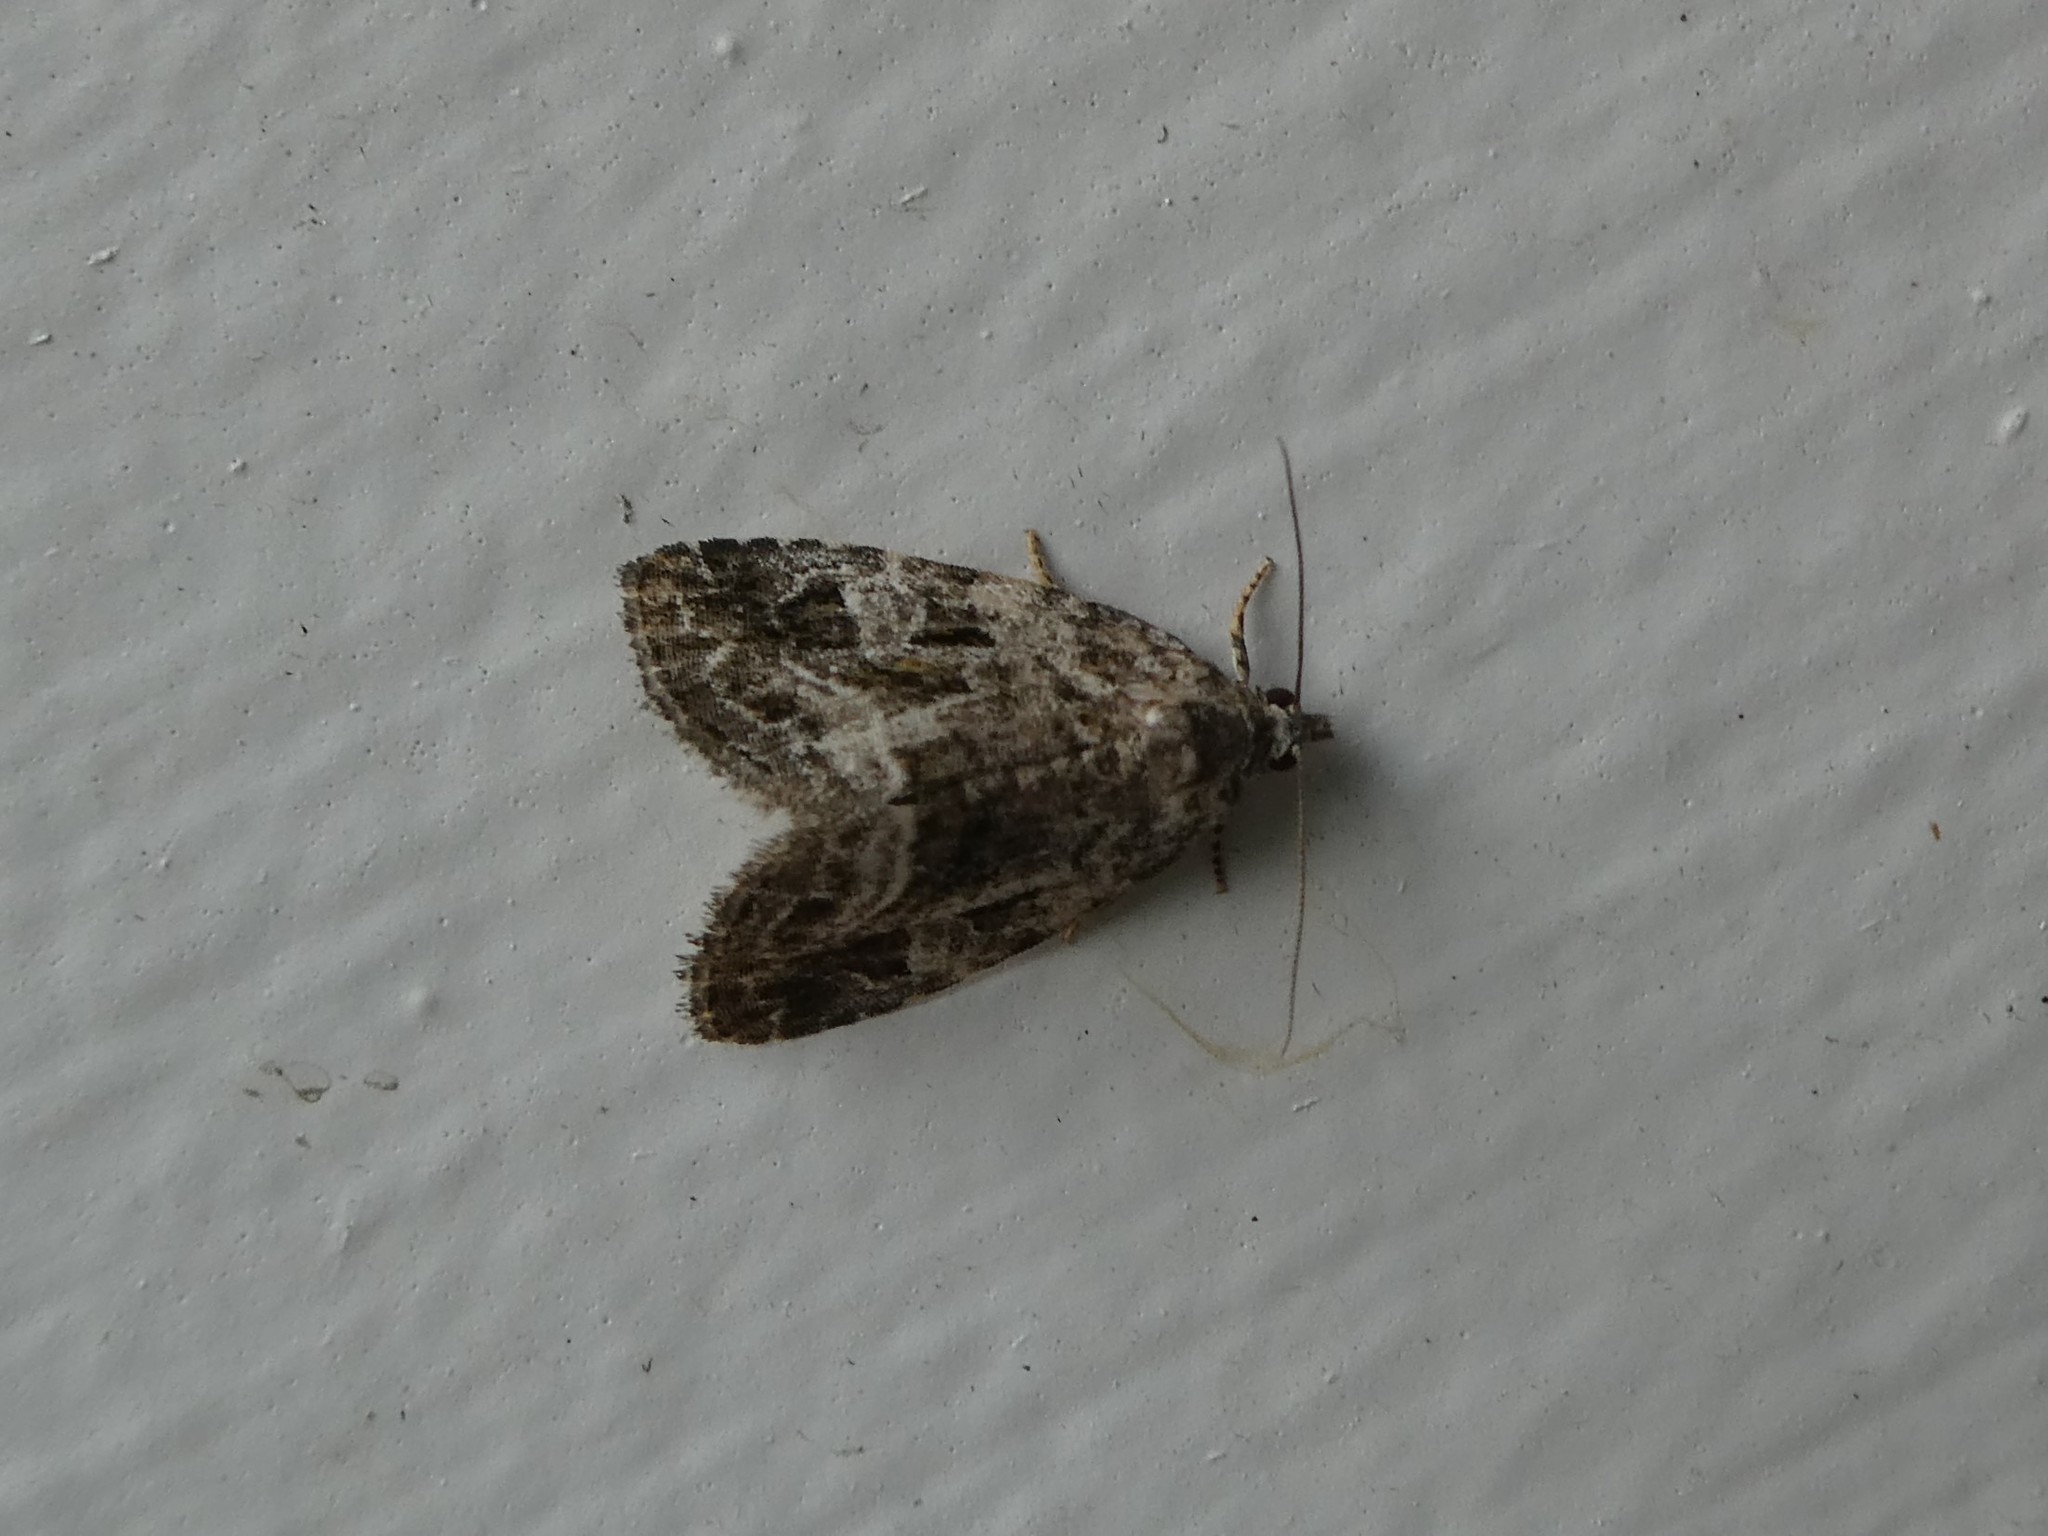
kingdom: Animalia
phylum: Arthropoda
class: Insecta
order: Lepidoptera
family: Noctuidae
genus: Protodeltote
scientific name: Protodeltote muscosula
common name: Large mossy glyph
